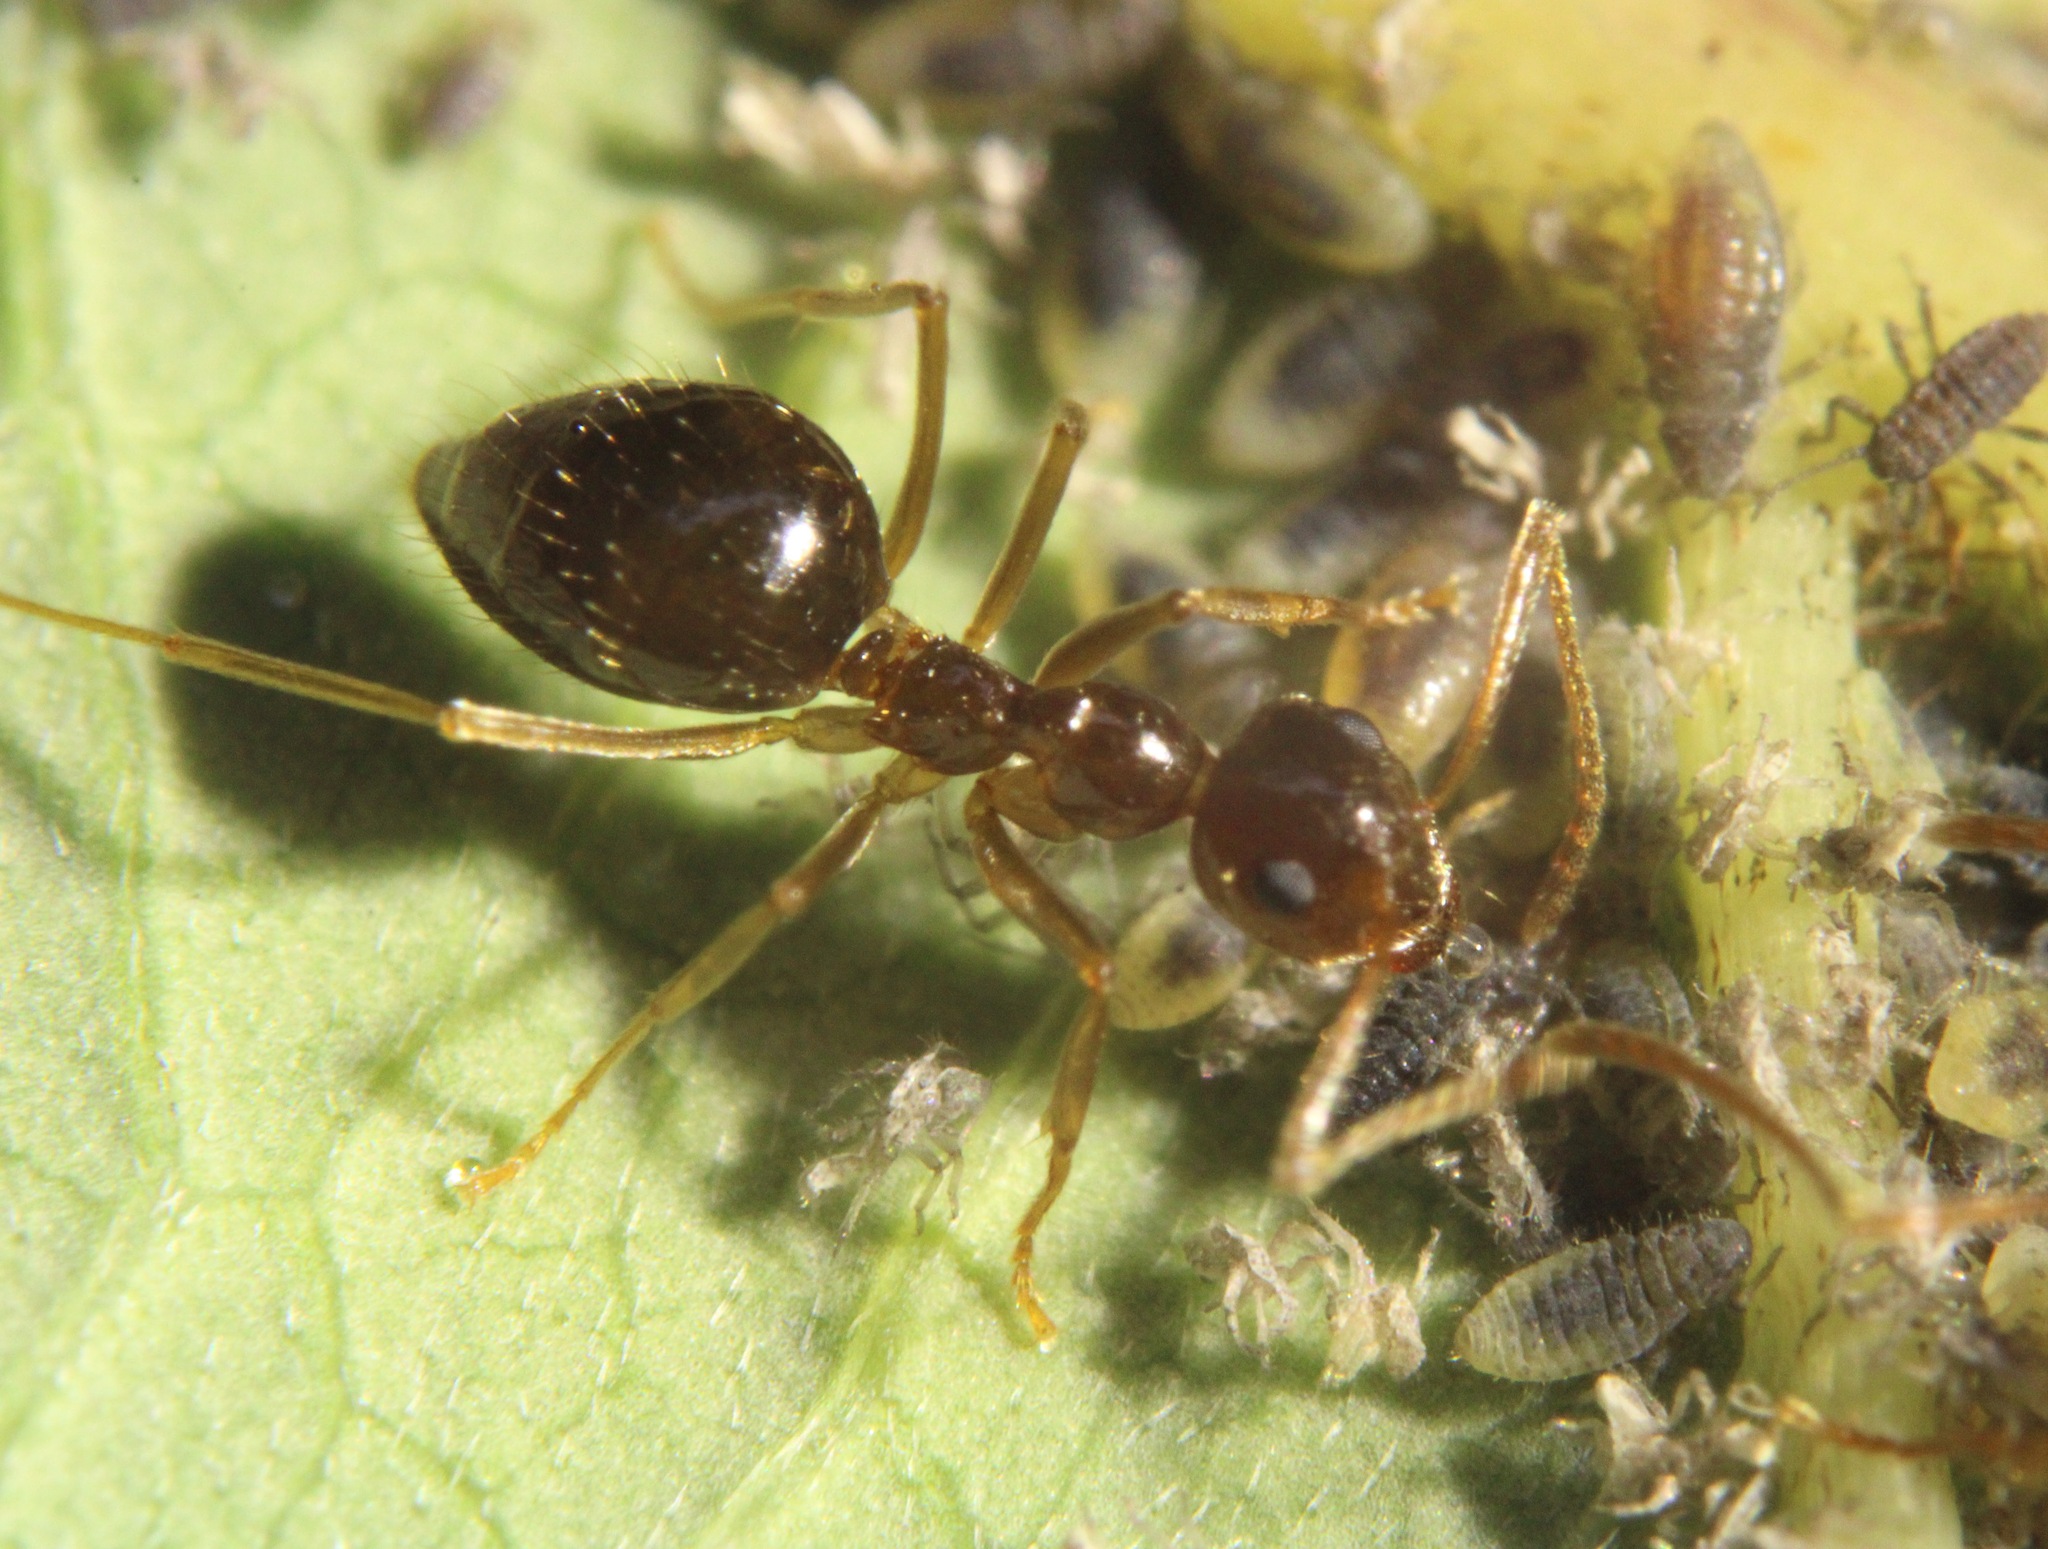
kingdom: Animalia
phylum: Arthropoda
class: Insecta
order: Hymenoptera
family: Formicidae
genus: Prenolepis
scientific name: Prenolepis imparis
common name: Small honey ant
